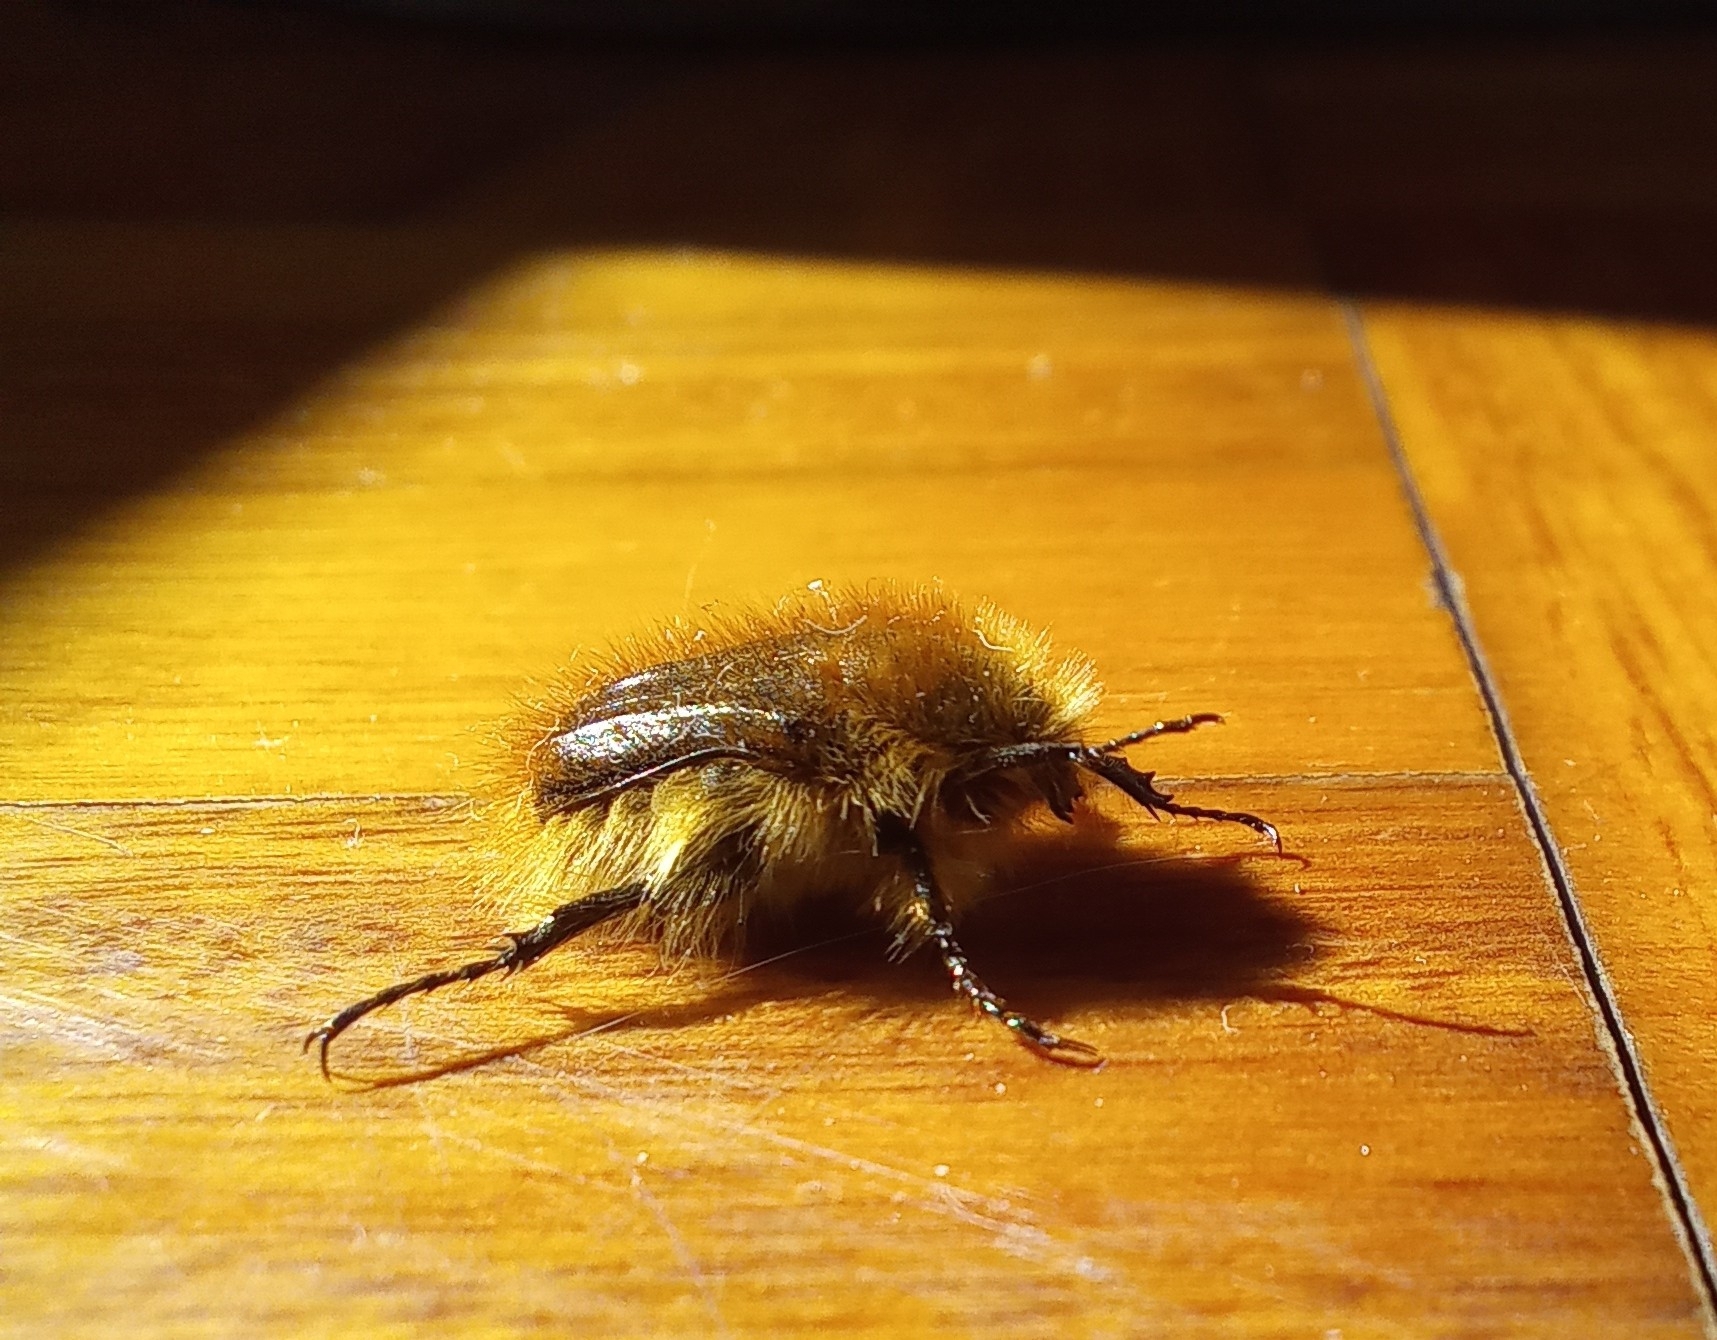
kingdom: Animalia
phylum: Arthropoda
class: Insecta
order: Coleoptera
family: Scarabaeidae
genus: Tropinota
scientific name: Tropinota squalida
